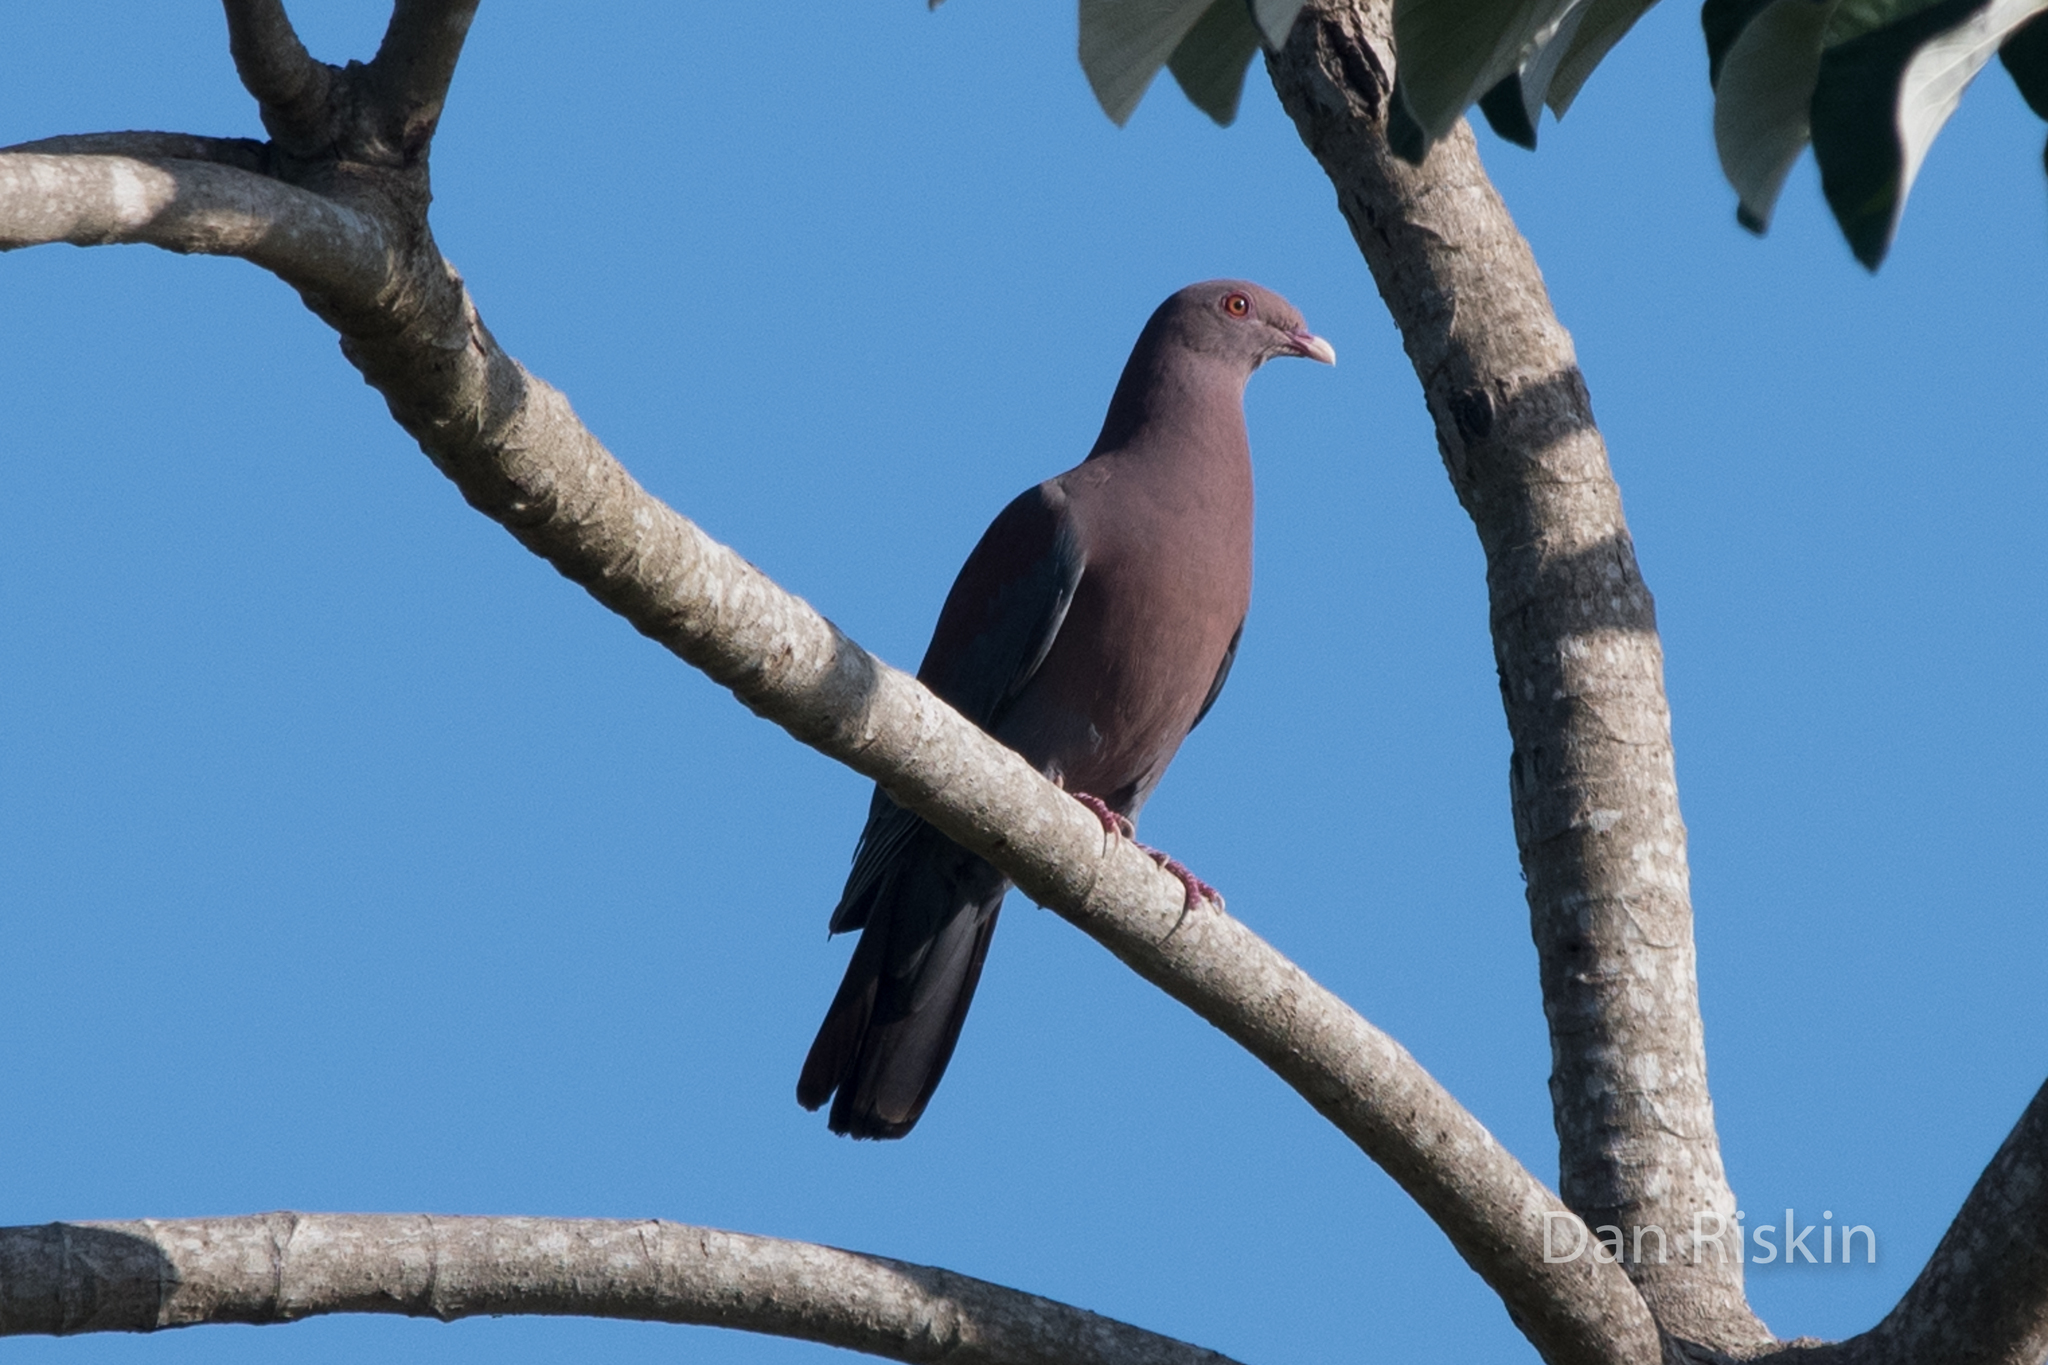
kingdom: Animalia
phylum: Chordata
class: Aves
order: Columbiformes
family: Columbidae
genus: Patagioenas
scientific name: Patagioenas flavirostris
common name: Red-billed pigeon
